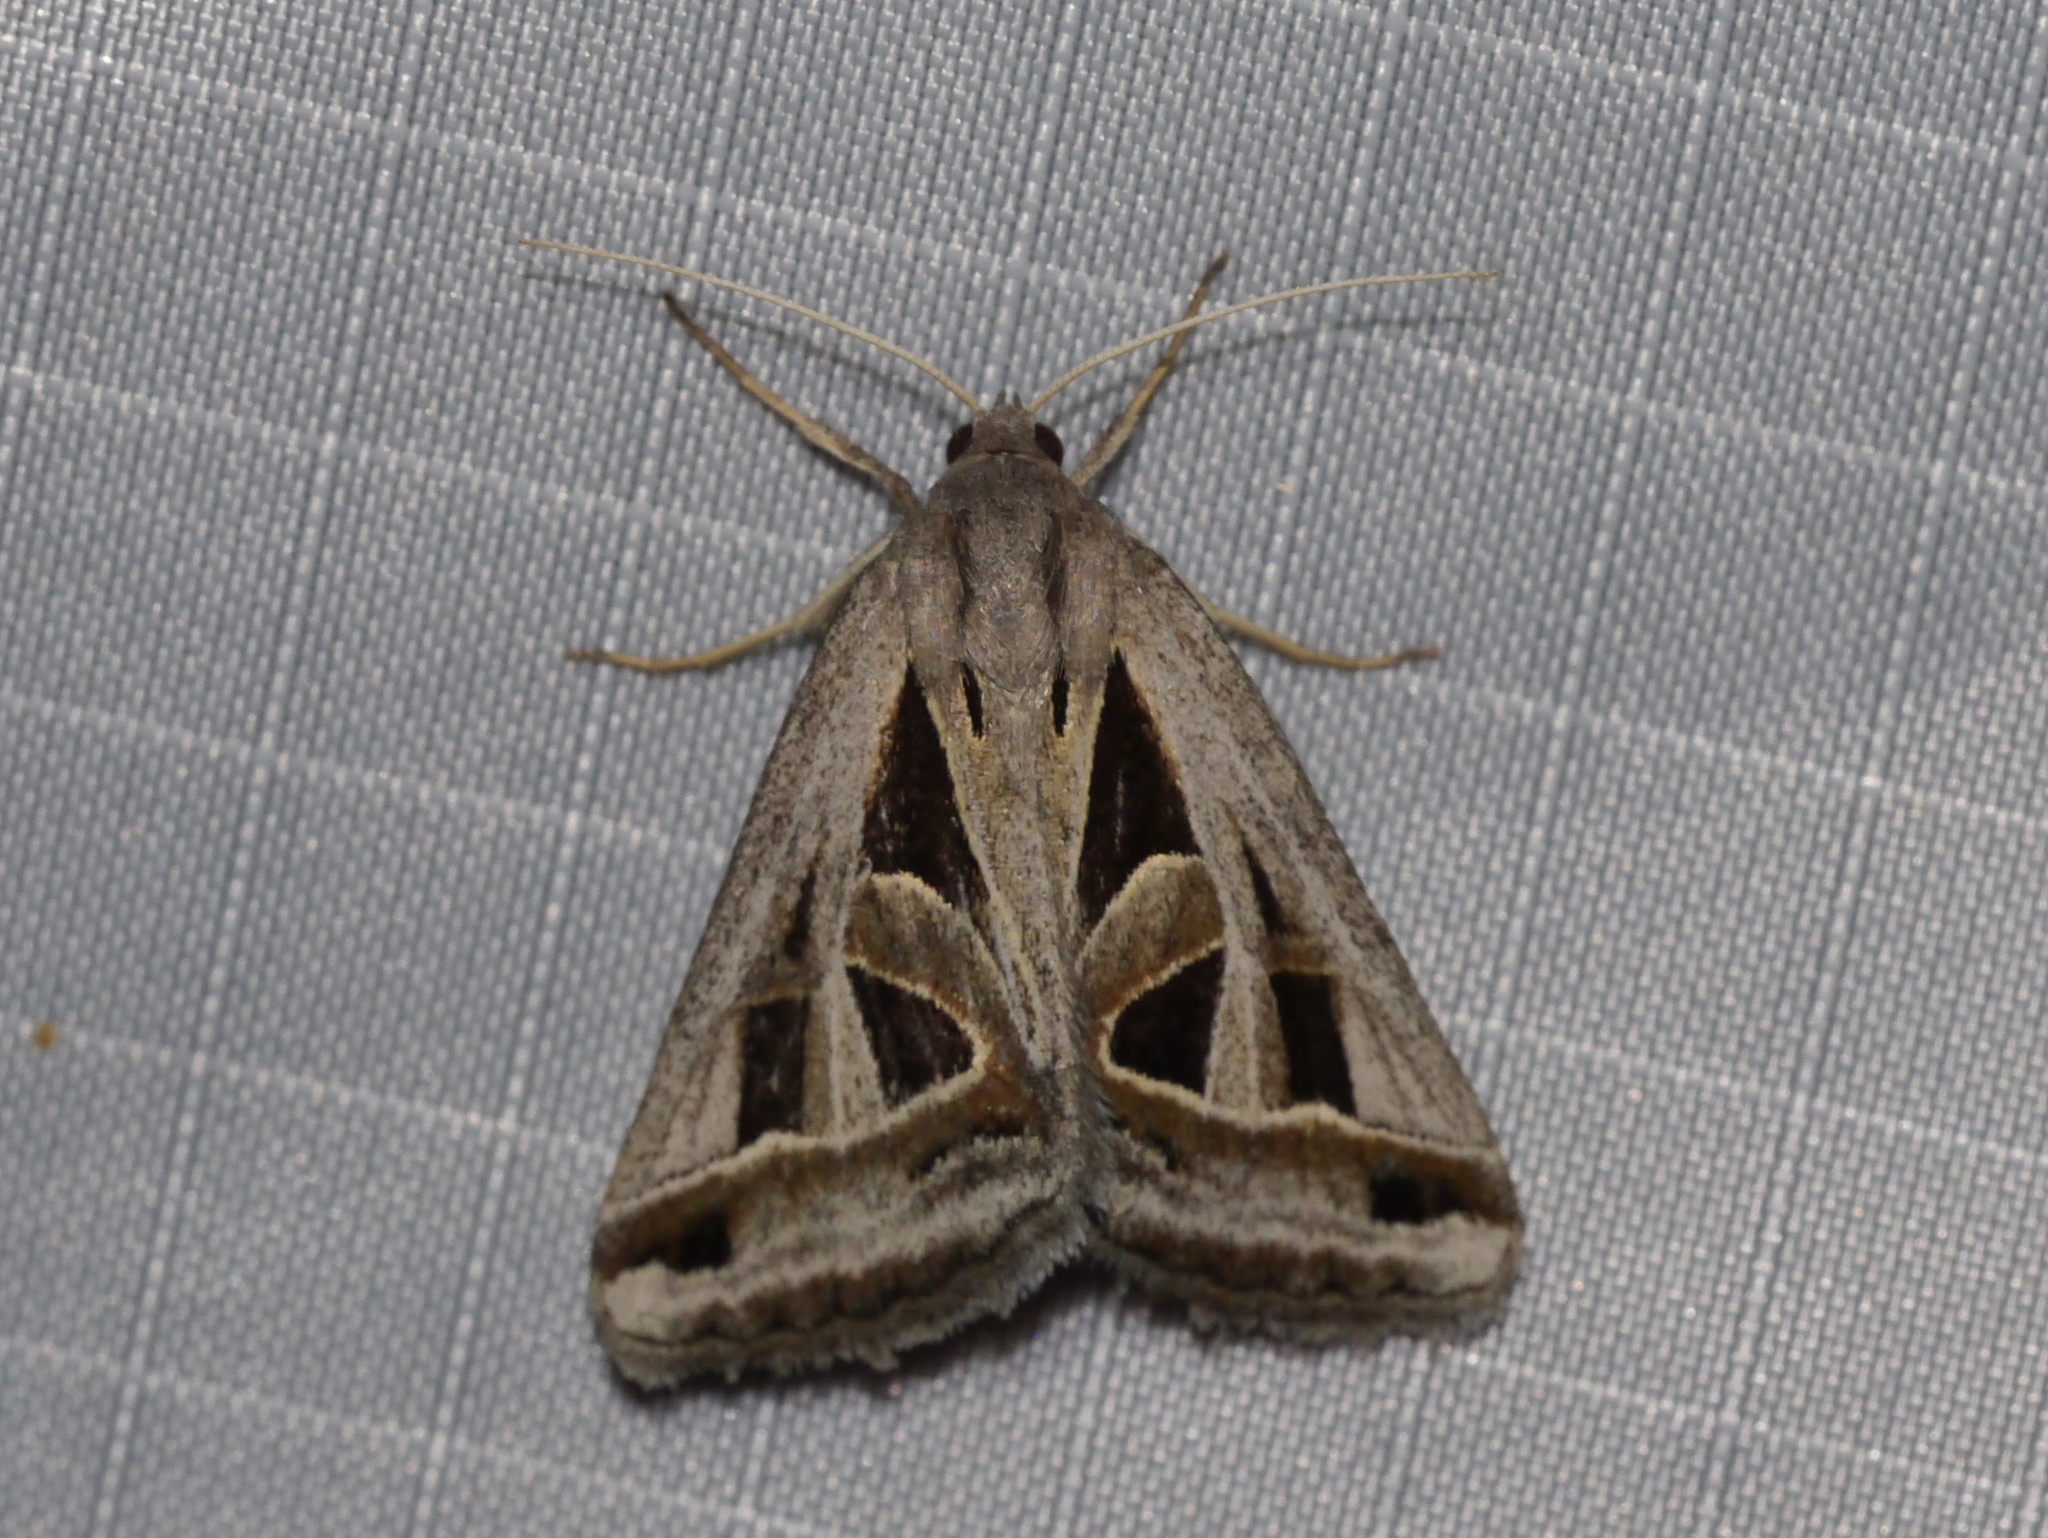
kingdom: Animalia
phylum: Arthropoda
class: Insecta
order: Lepidoptera
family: Erebidae
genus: Callistege
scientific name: Callistege diagonalis
